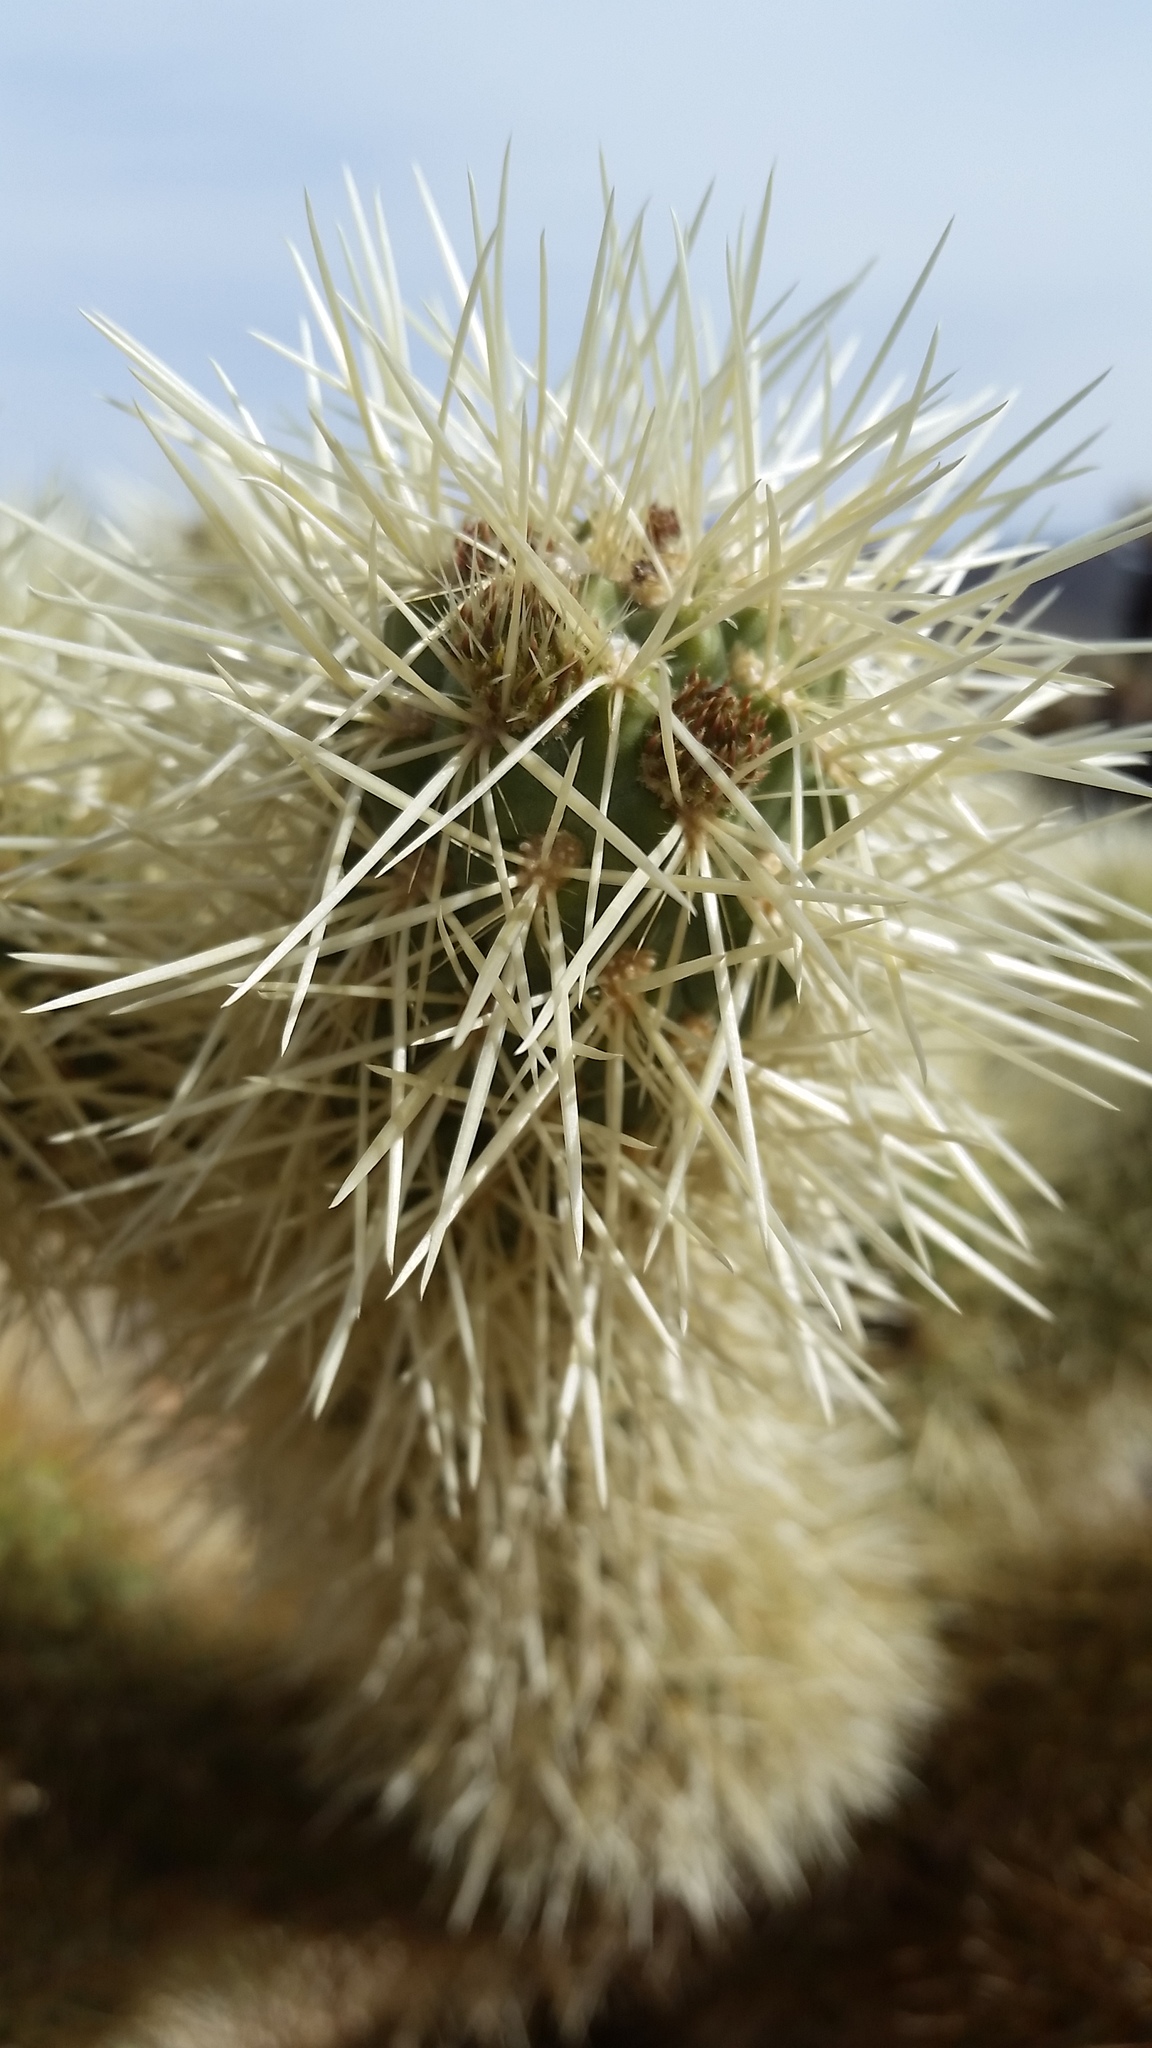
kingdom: Plantae
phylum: Tracheophyta
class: Magnoliopsida
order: Caryophyllales
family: Cactaceae
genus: Cylindropuntia
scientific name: Cylindropuntia fosbergii
